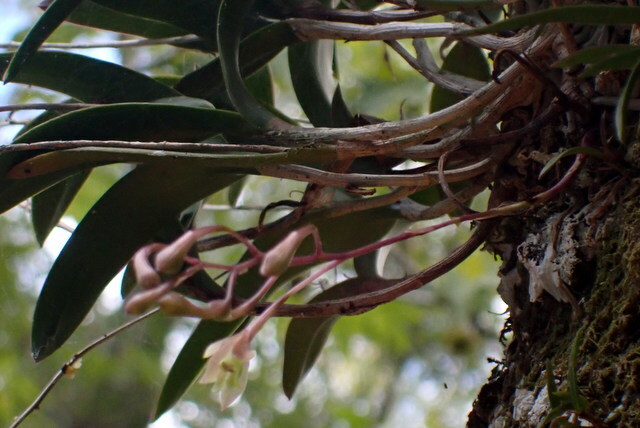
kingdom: Plantae
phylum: Tracheophyta
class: Liliopsida
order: Asparagales
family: Orchidaceae
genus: Epidendrum
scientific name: Epidendrum conopseum
